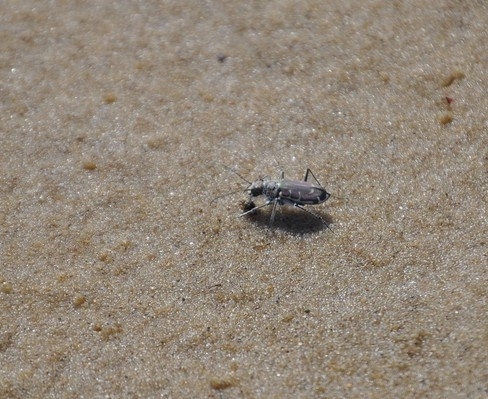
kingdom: Animalia
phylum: Arthropoda
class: Insecta
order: Coleoptera
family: Carabidae
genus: Cicindela
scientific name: Cicindela hirticollis
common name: Hairy-necked tiger beetle
